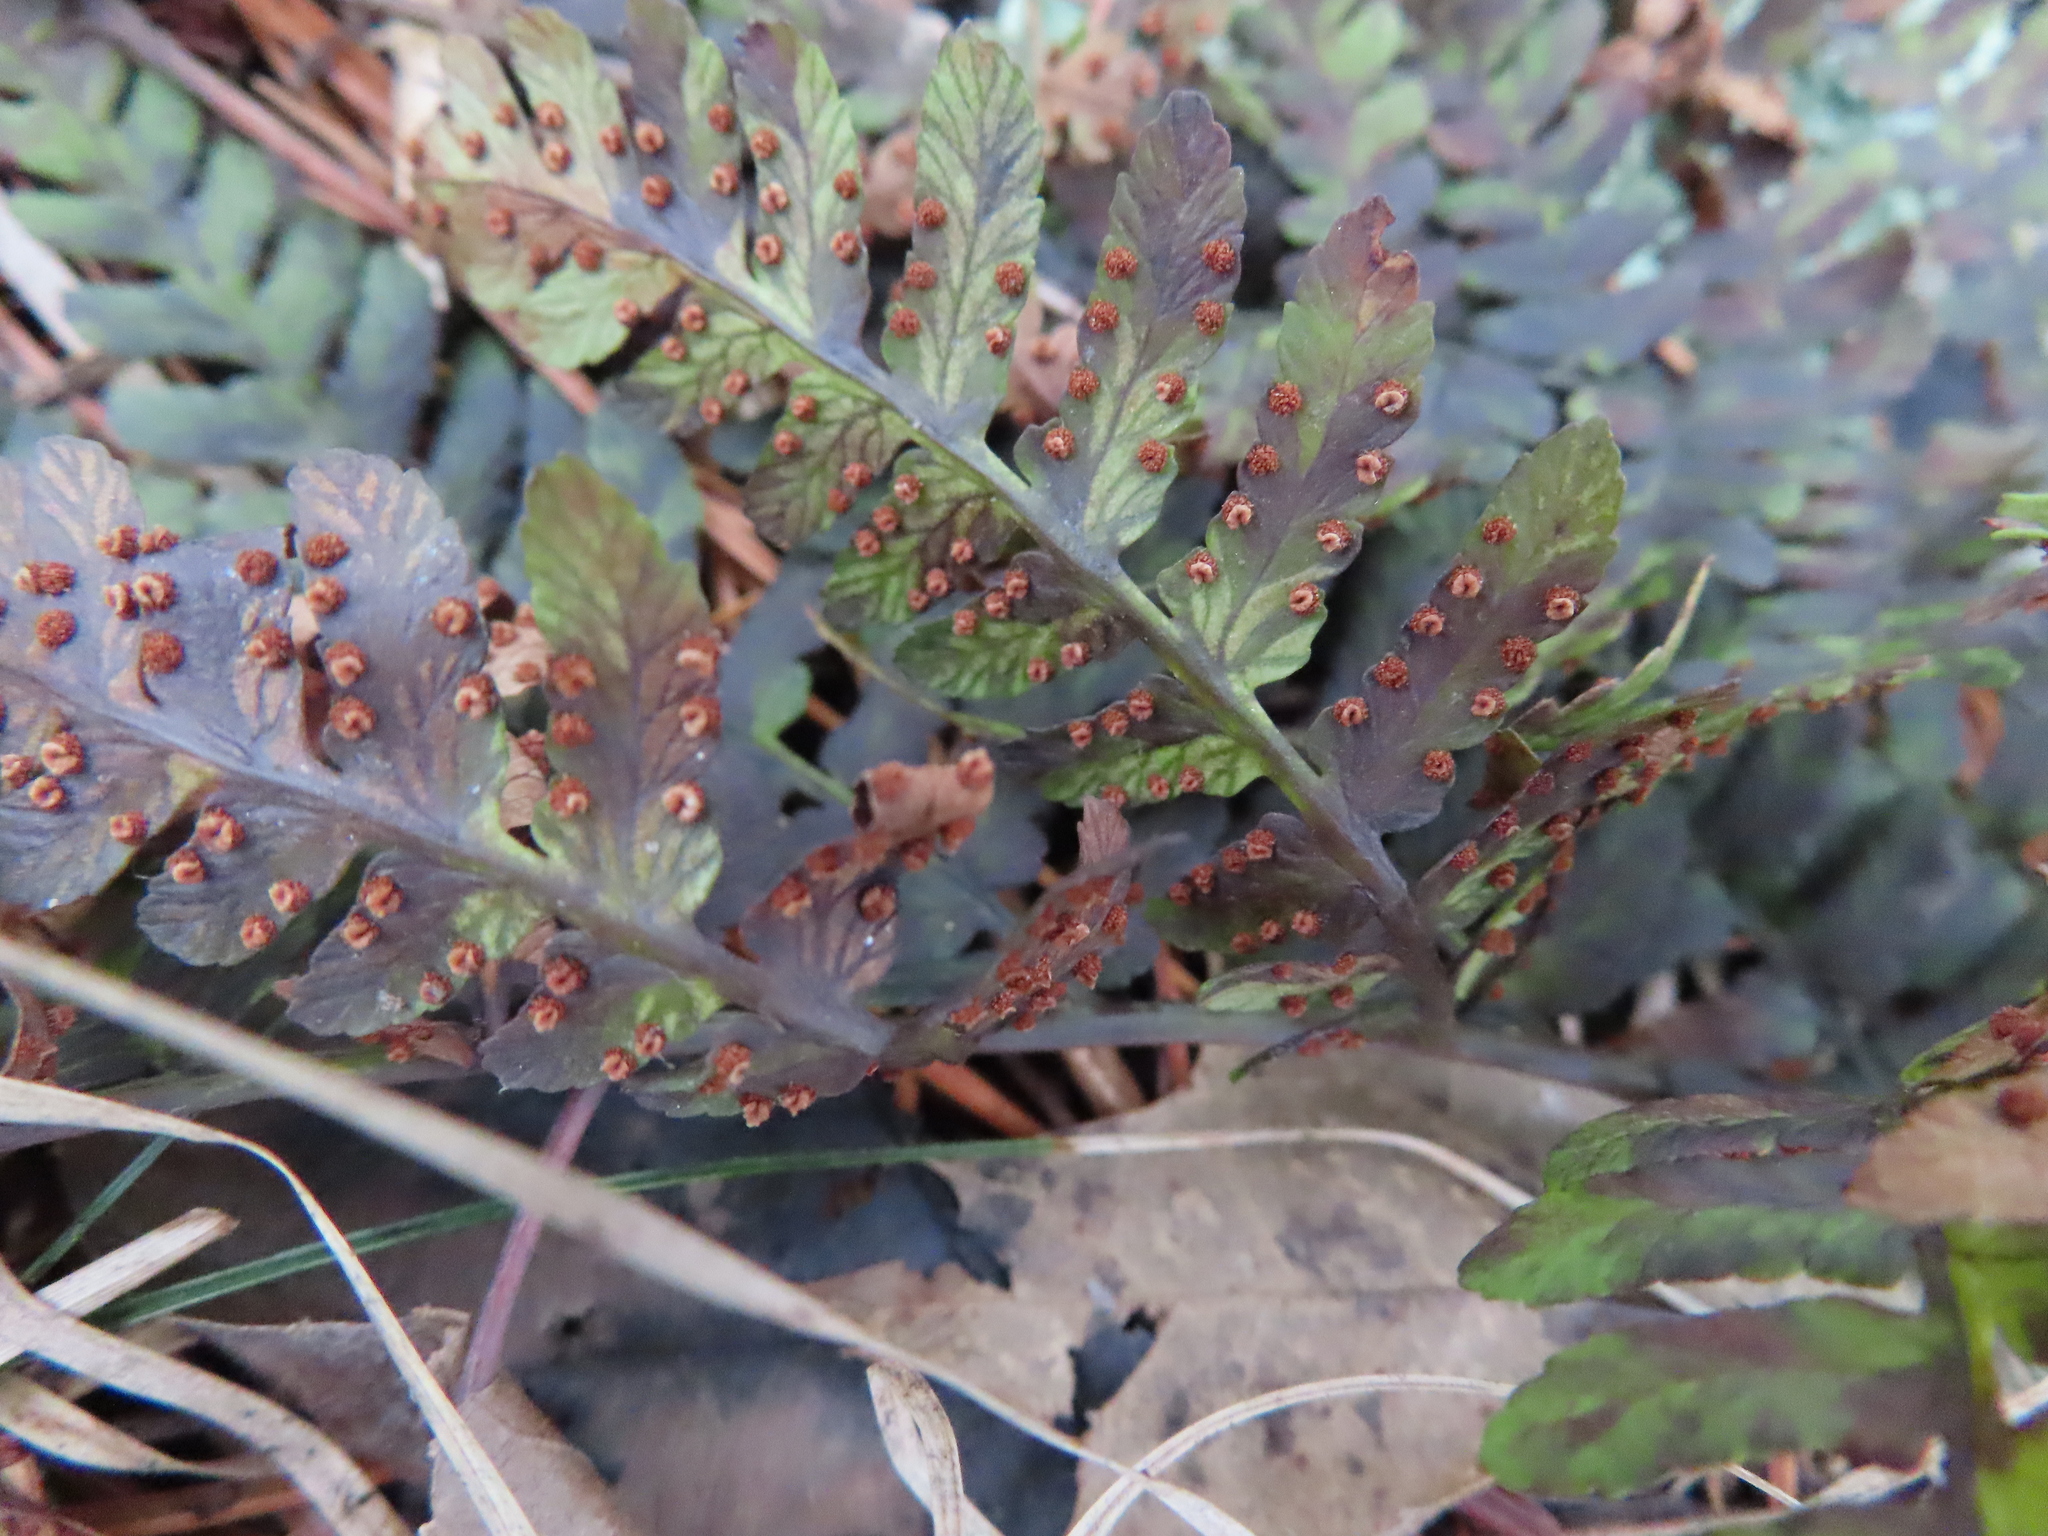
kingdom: Plantae
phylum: Tracheophyta
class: Polypodiopsida
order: Polypodiales
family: Dryopteridaceae
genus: Dryopteris
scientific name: Dryopteris marginalis
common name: Marginal wood fern
